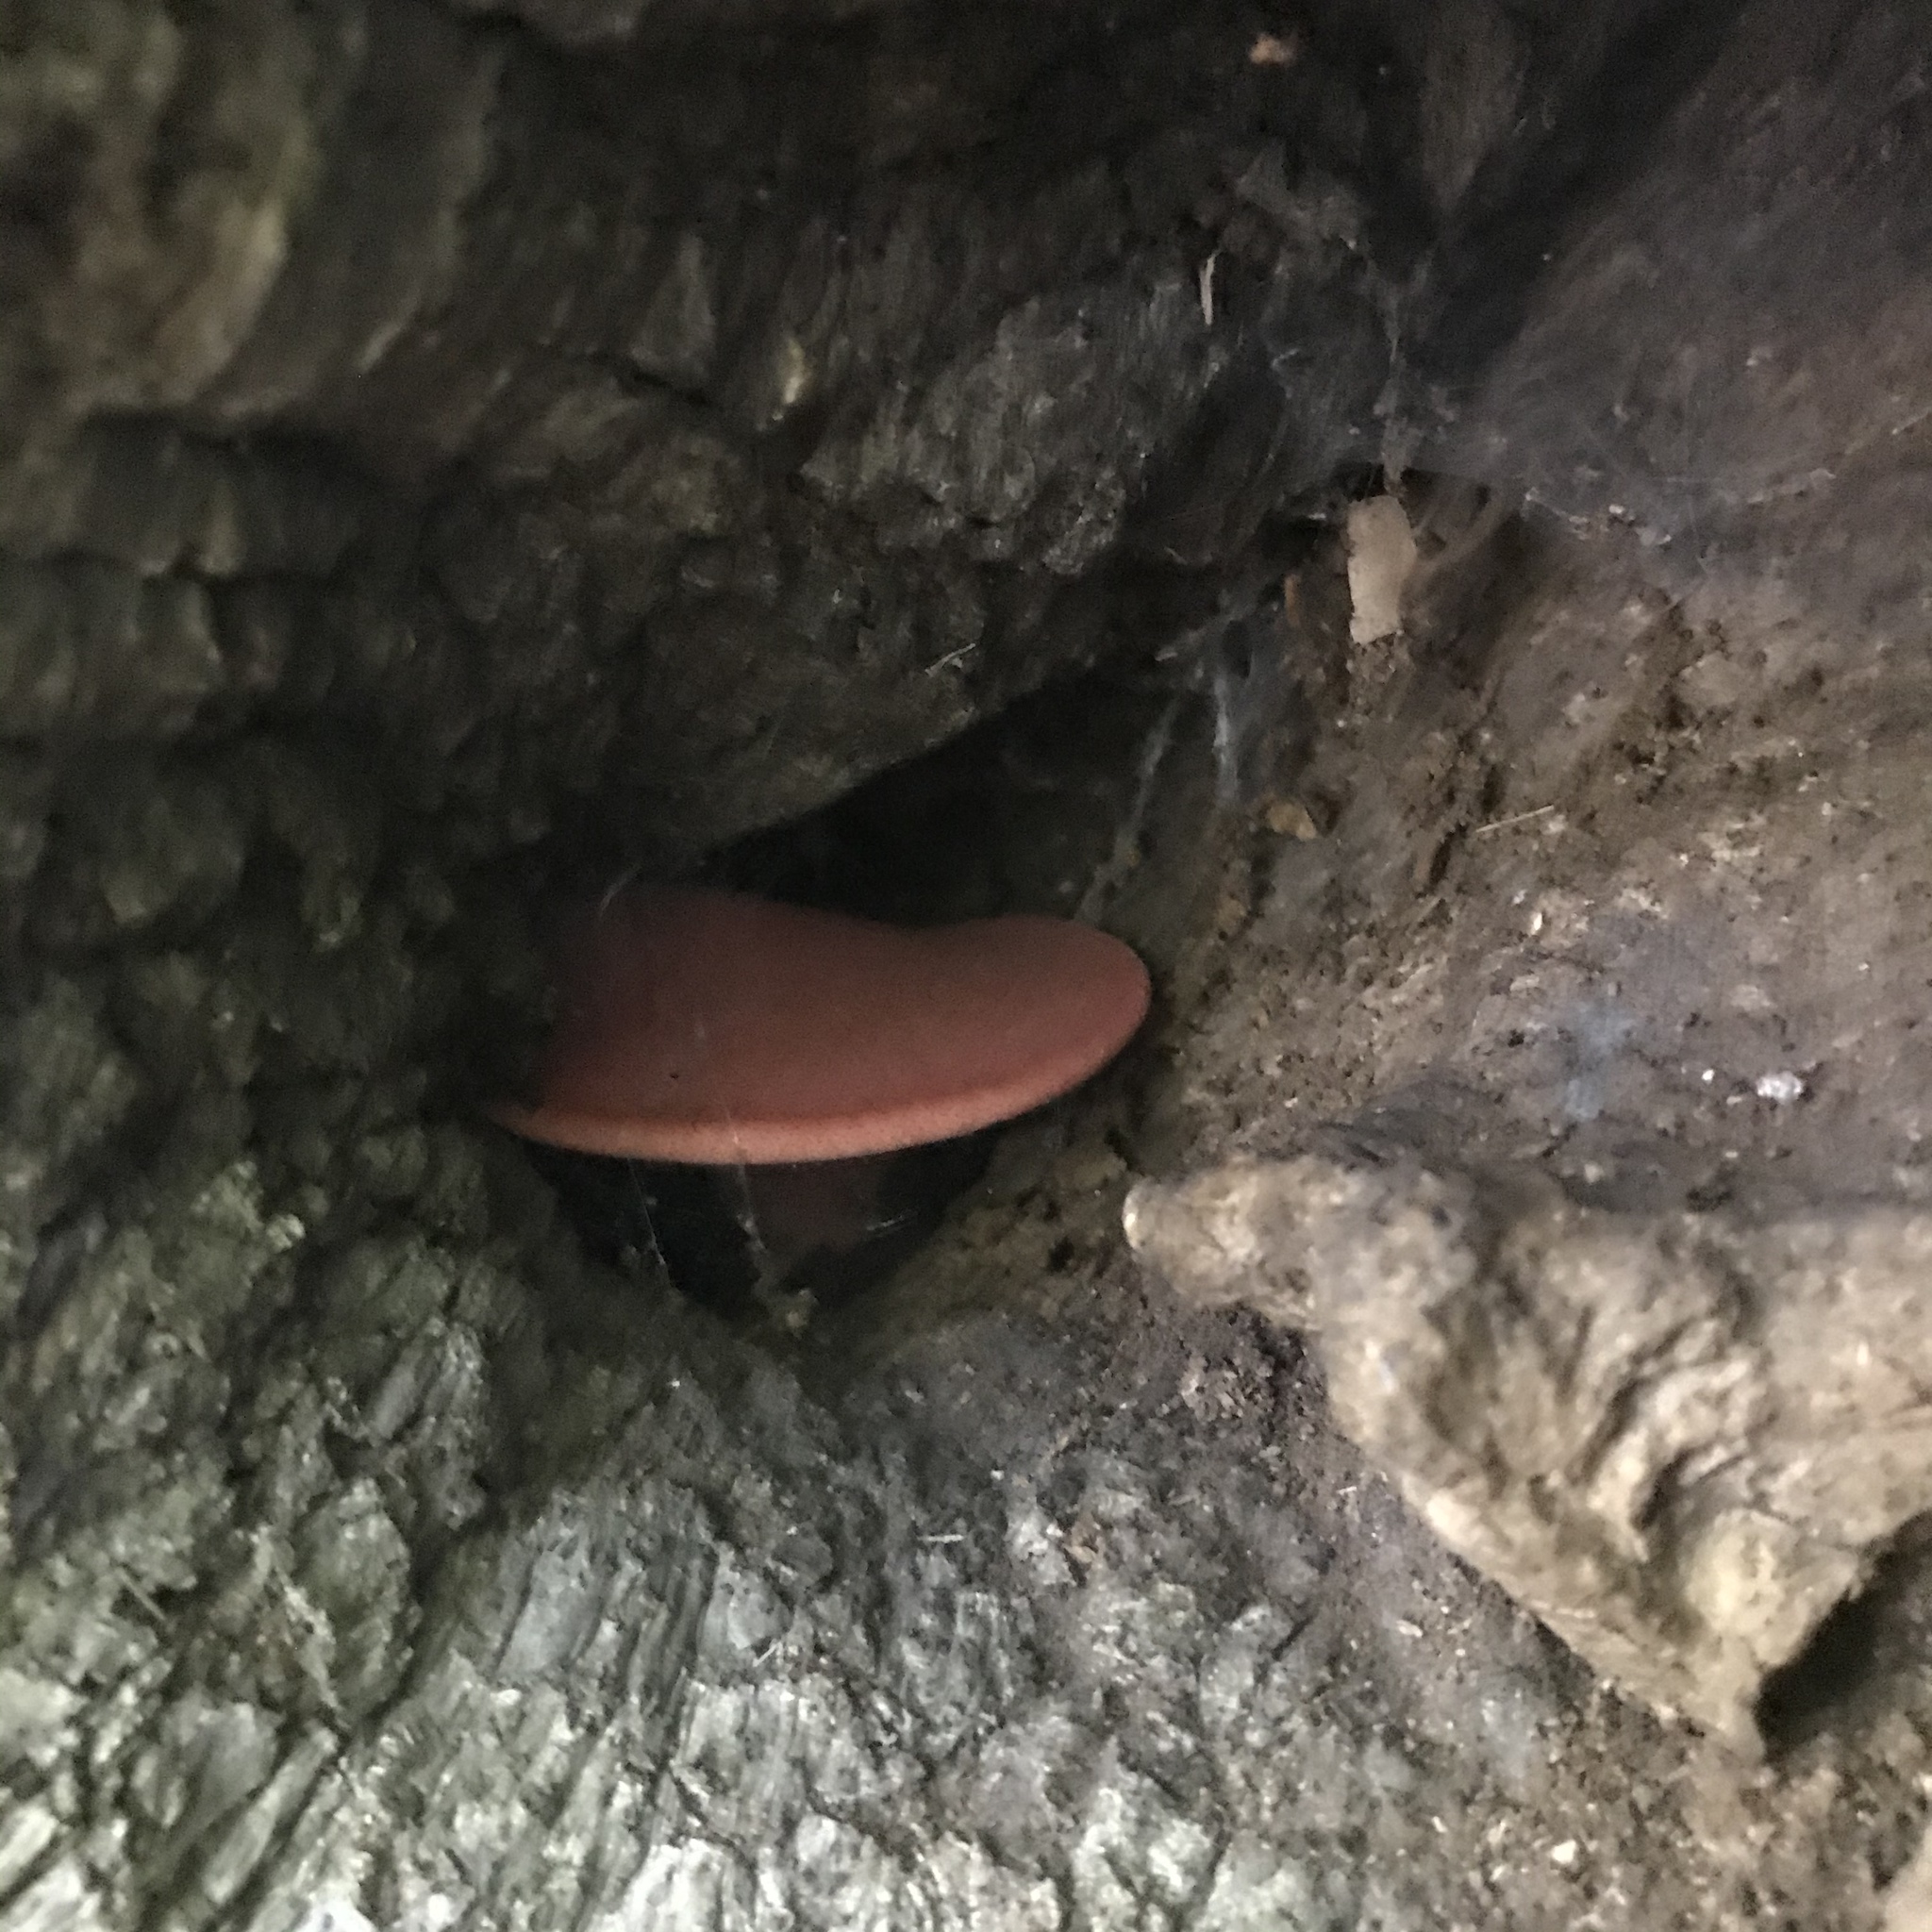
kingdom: Fungi
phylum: Basidiomycota
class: Agaricomycetes
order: Agaricales
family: Fistulinaceae
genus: Fistulina
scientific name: Fistulina
